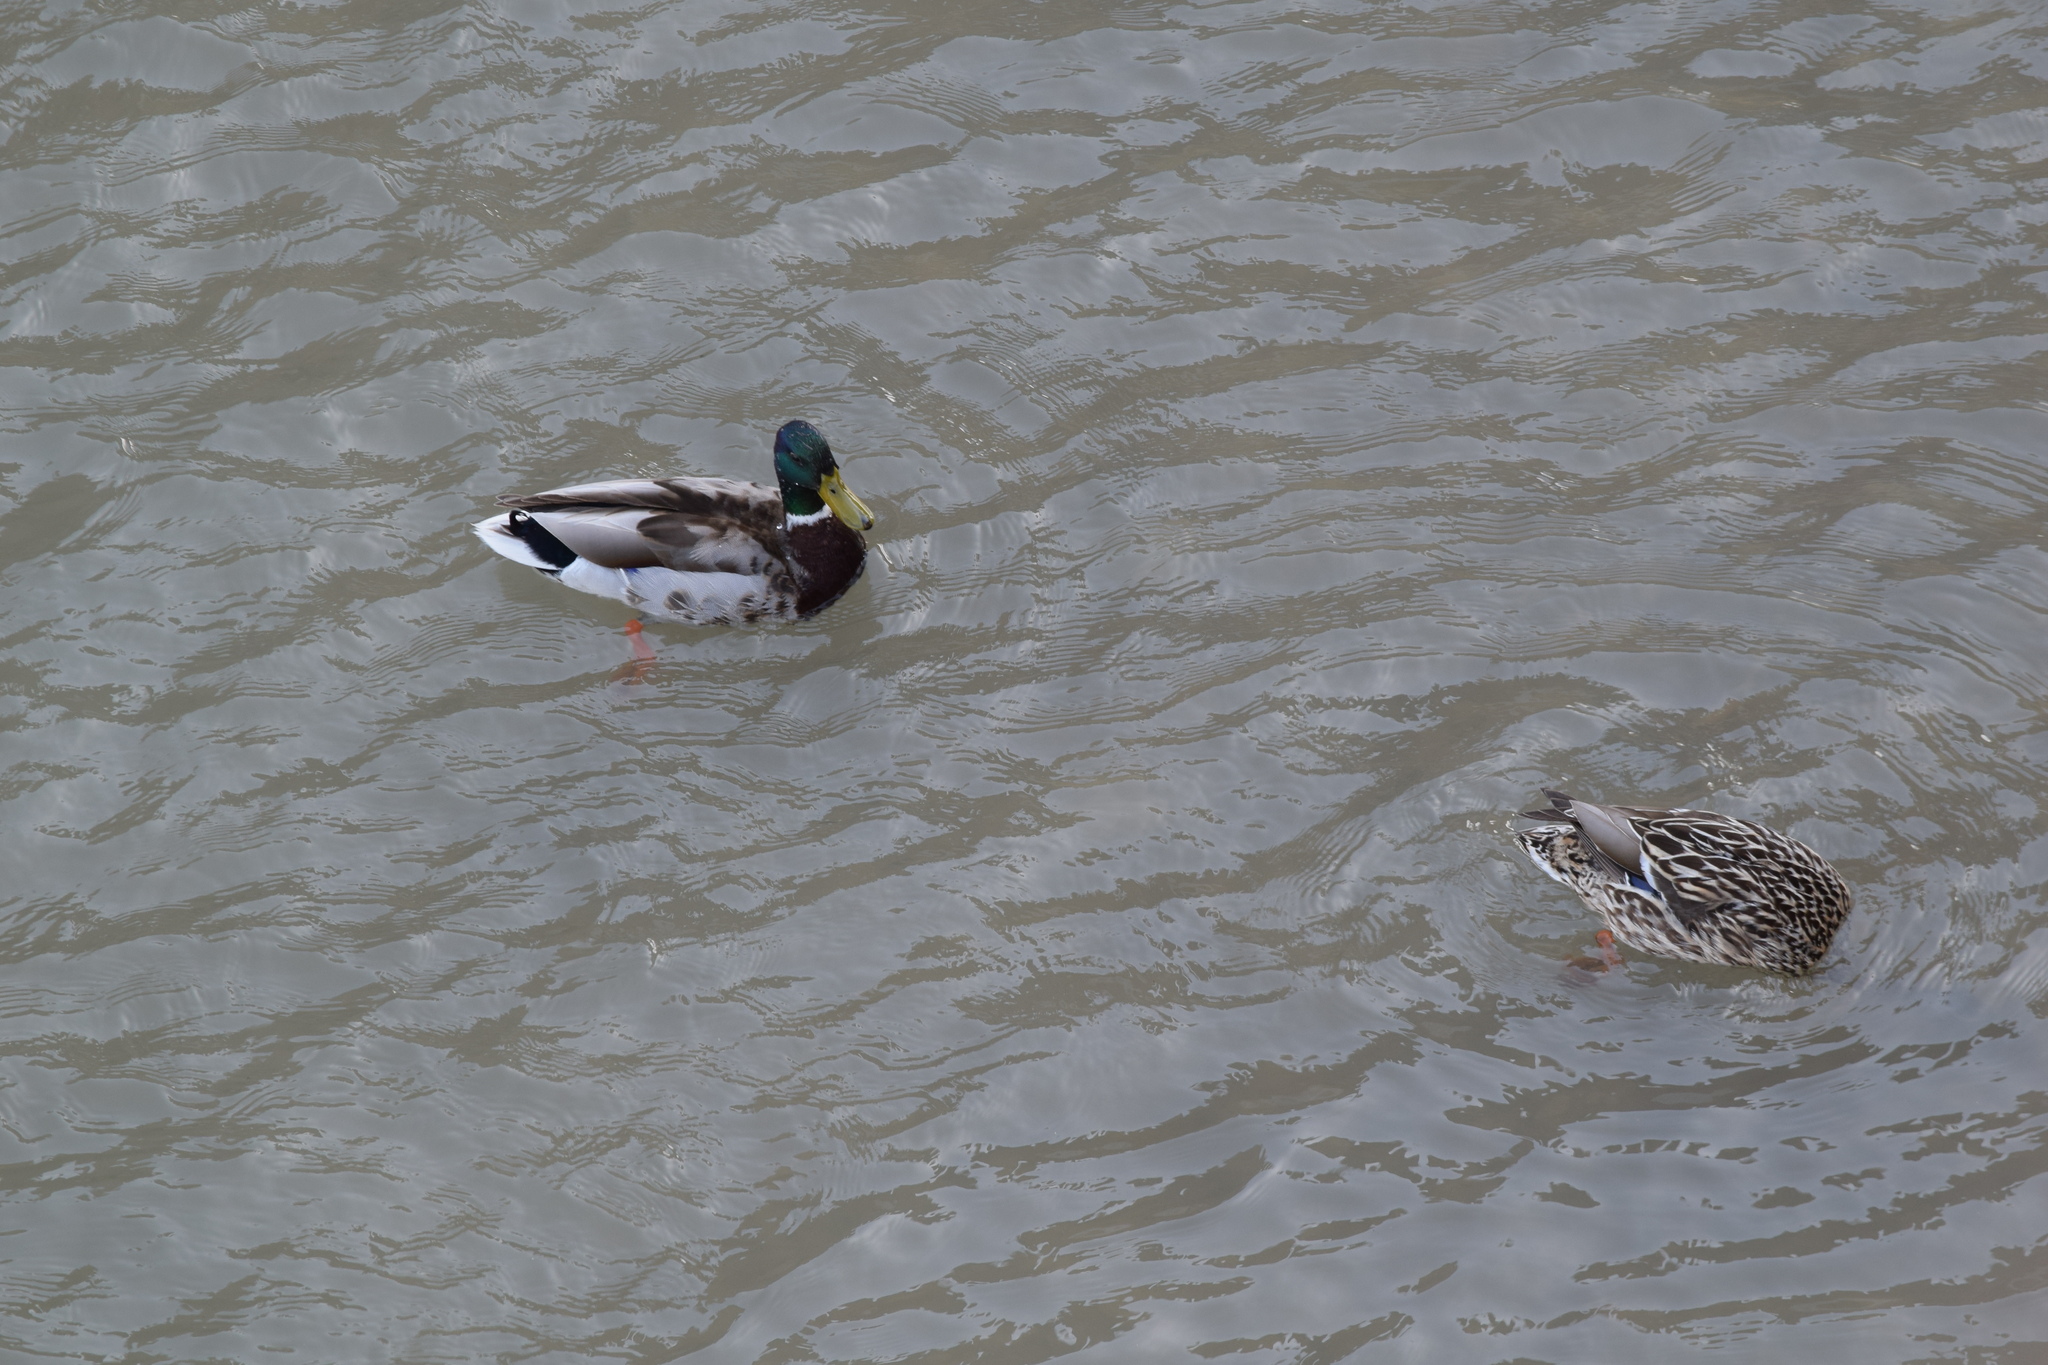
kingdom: Animalia
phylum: Chordata
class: Aves
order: Anseriformes
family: Anatidae
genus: Anas
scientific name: Anas platyrhynchos
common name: Mallard
